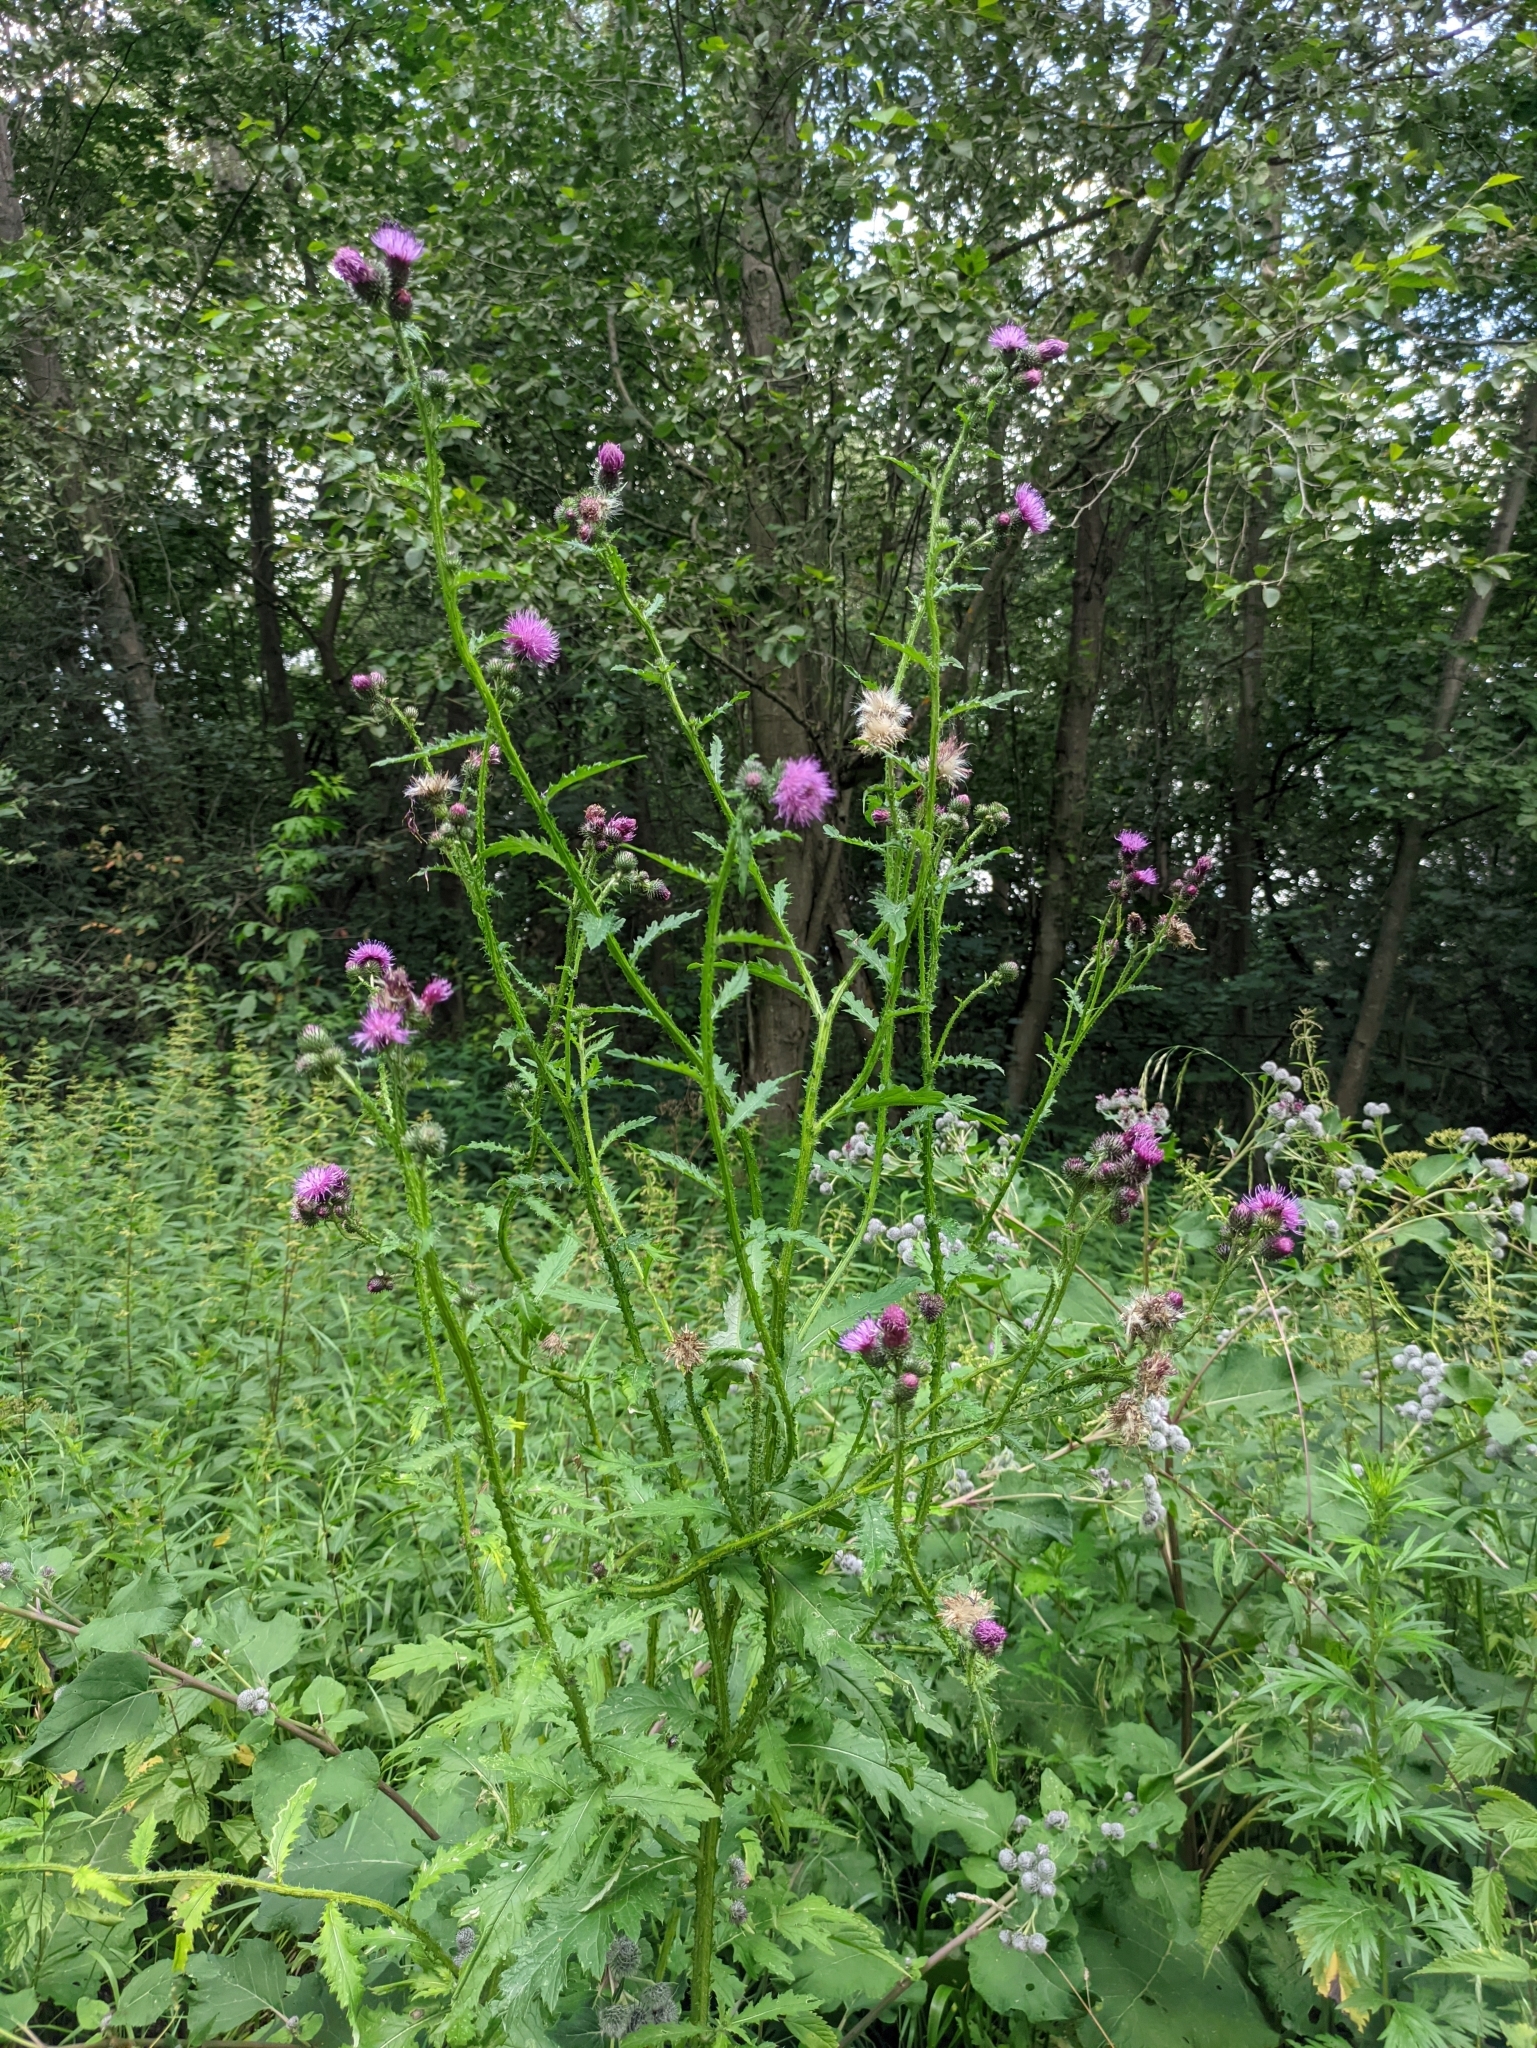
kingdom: Plantae
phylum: Tracheophyta
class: Magnoliopsida
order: Asterales
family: Asteraceae
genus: Carduus
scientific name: Carduus crispus
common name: Welted thistle
